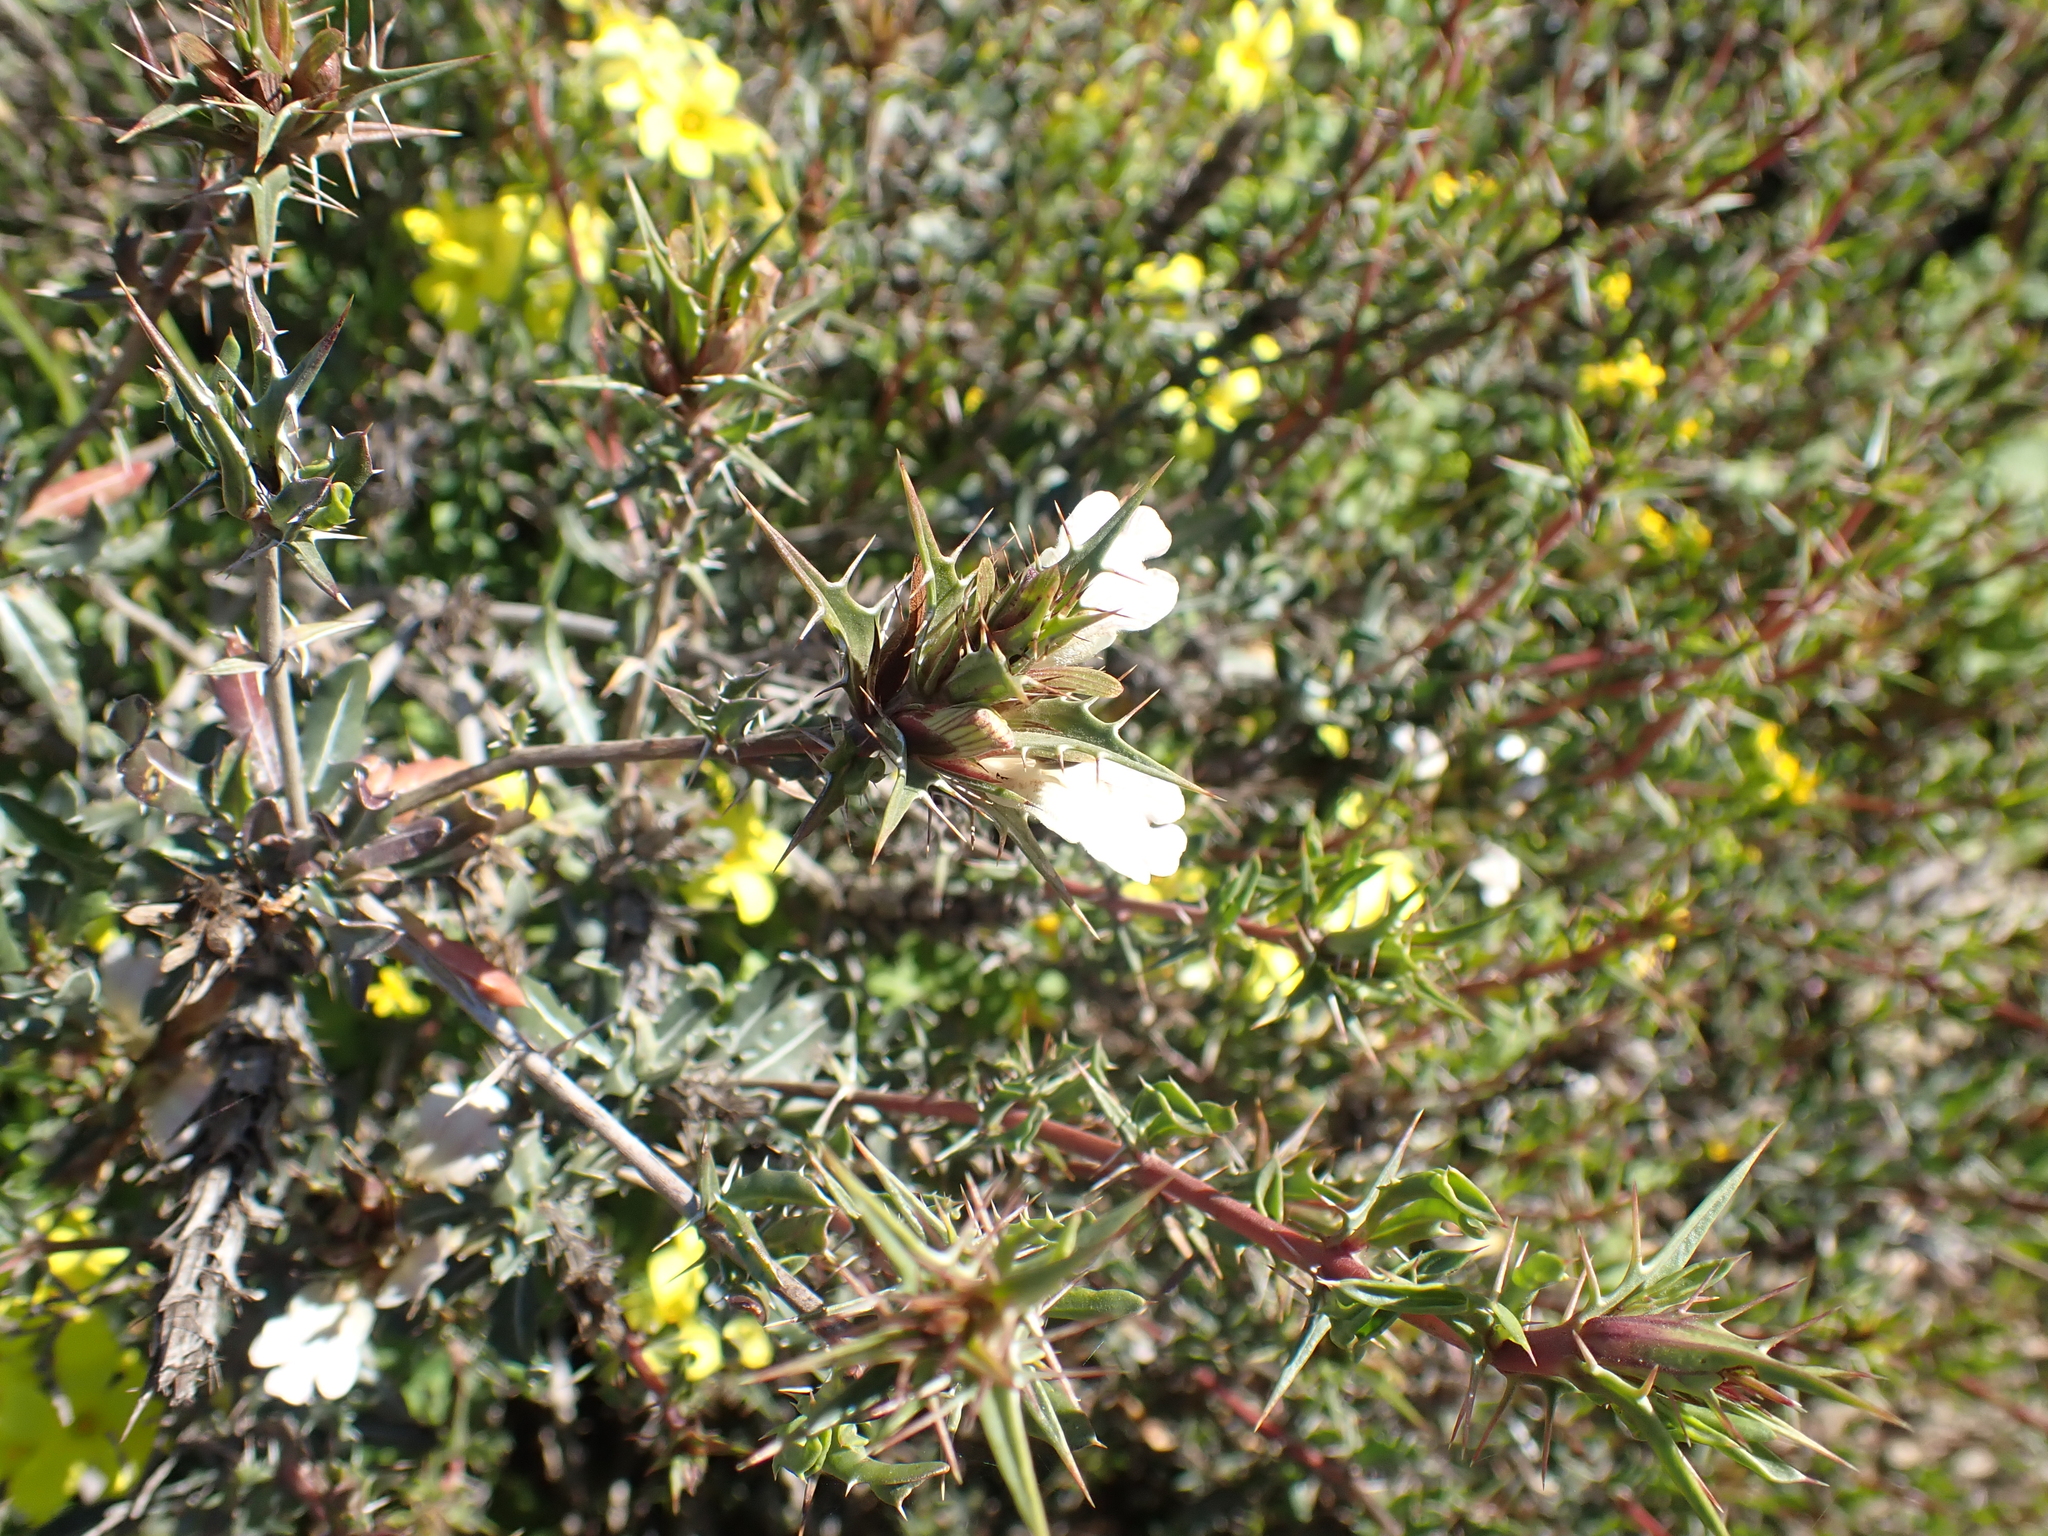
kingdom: Plantae
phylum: Tracheophyta
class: Magnoliopsida
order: Lamiales
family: Acanthaceae
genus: Blepharis
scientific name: Blepharis capensis
